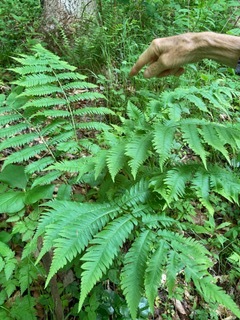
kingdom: Plantae
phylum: Tracheophyta
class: Polypodiopsida
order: Polypodiales
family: Dryopteridaceae
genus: Dryopteris
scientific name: Dryopteris goldieana
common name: Goldie's fern
